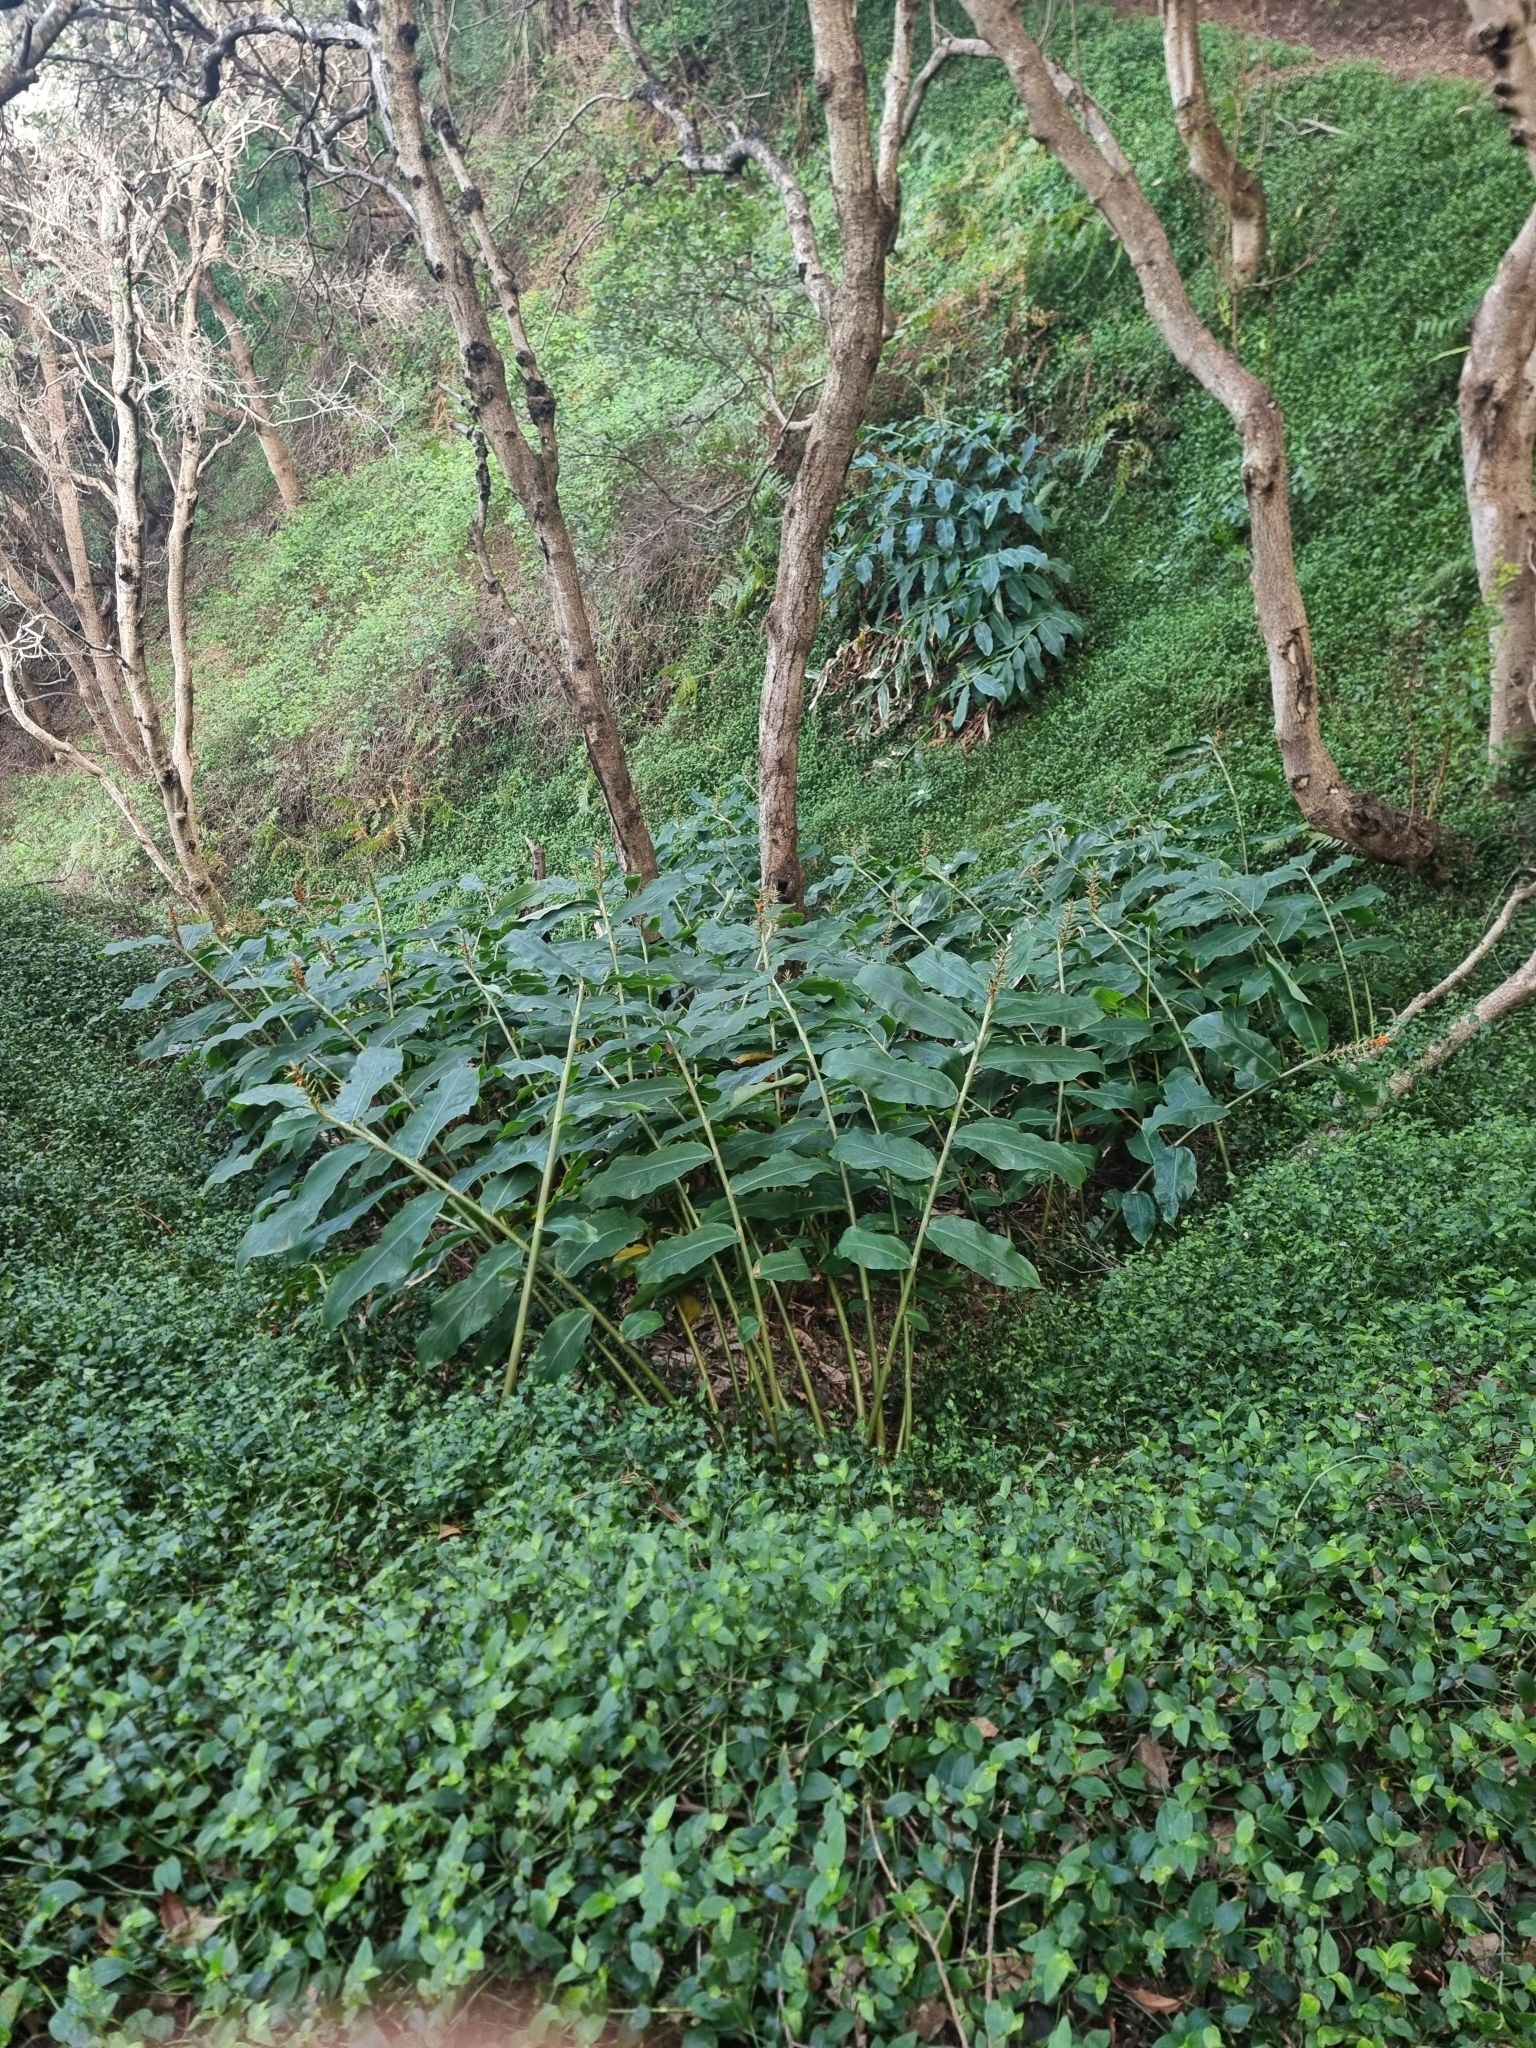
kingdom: Plantae
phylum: Tracheophyta
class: Liliopsida
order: Zingiberales
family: Zingiberaceae
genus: Hedychium
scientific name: Hedychium gardnerianum
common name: Himalayan ginger
